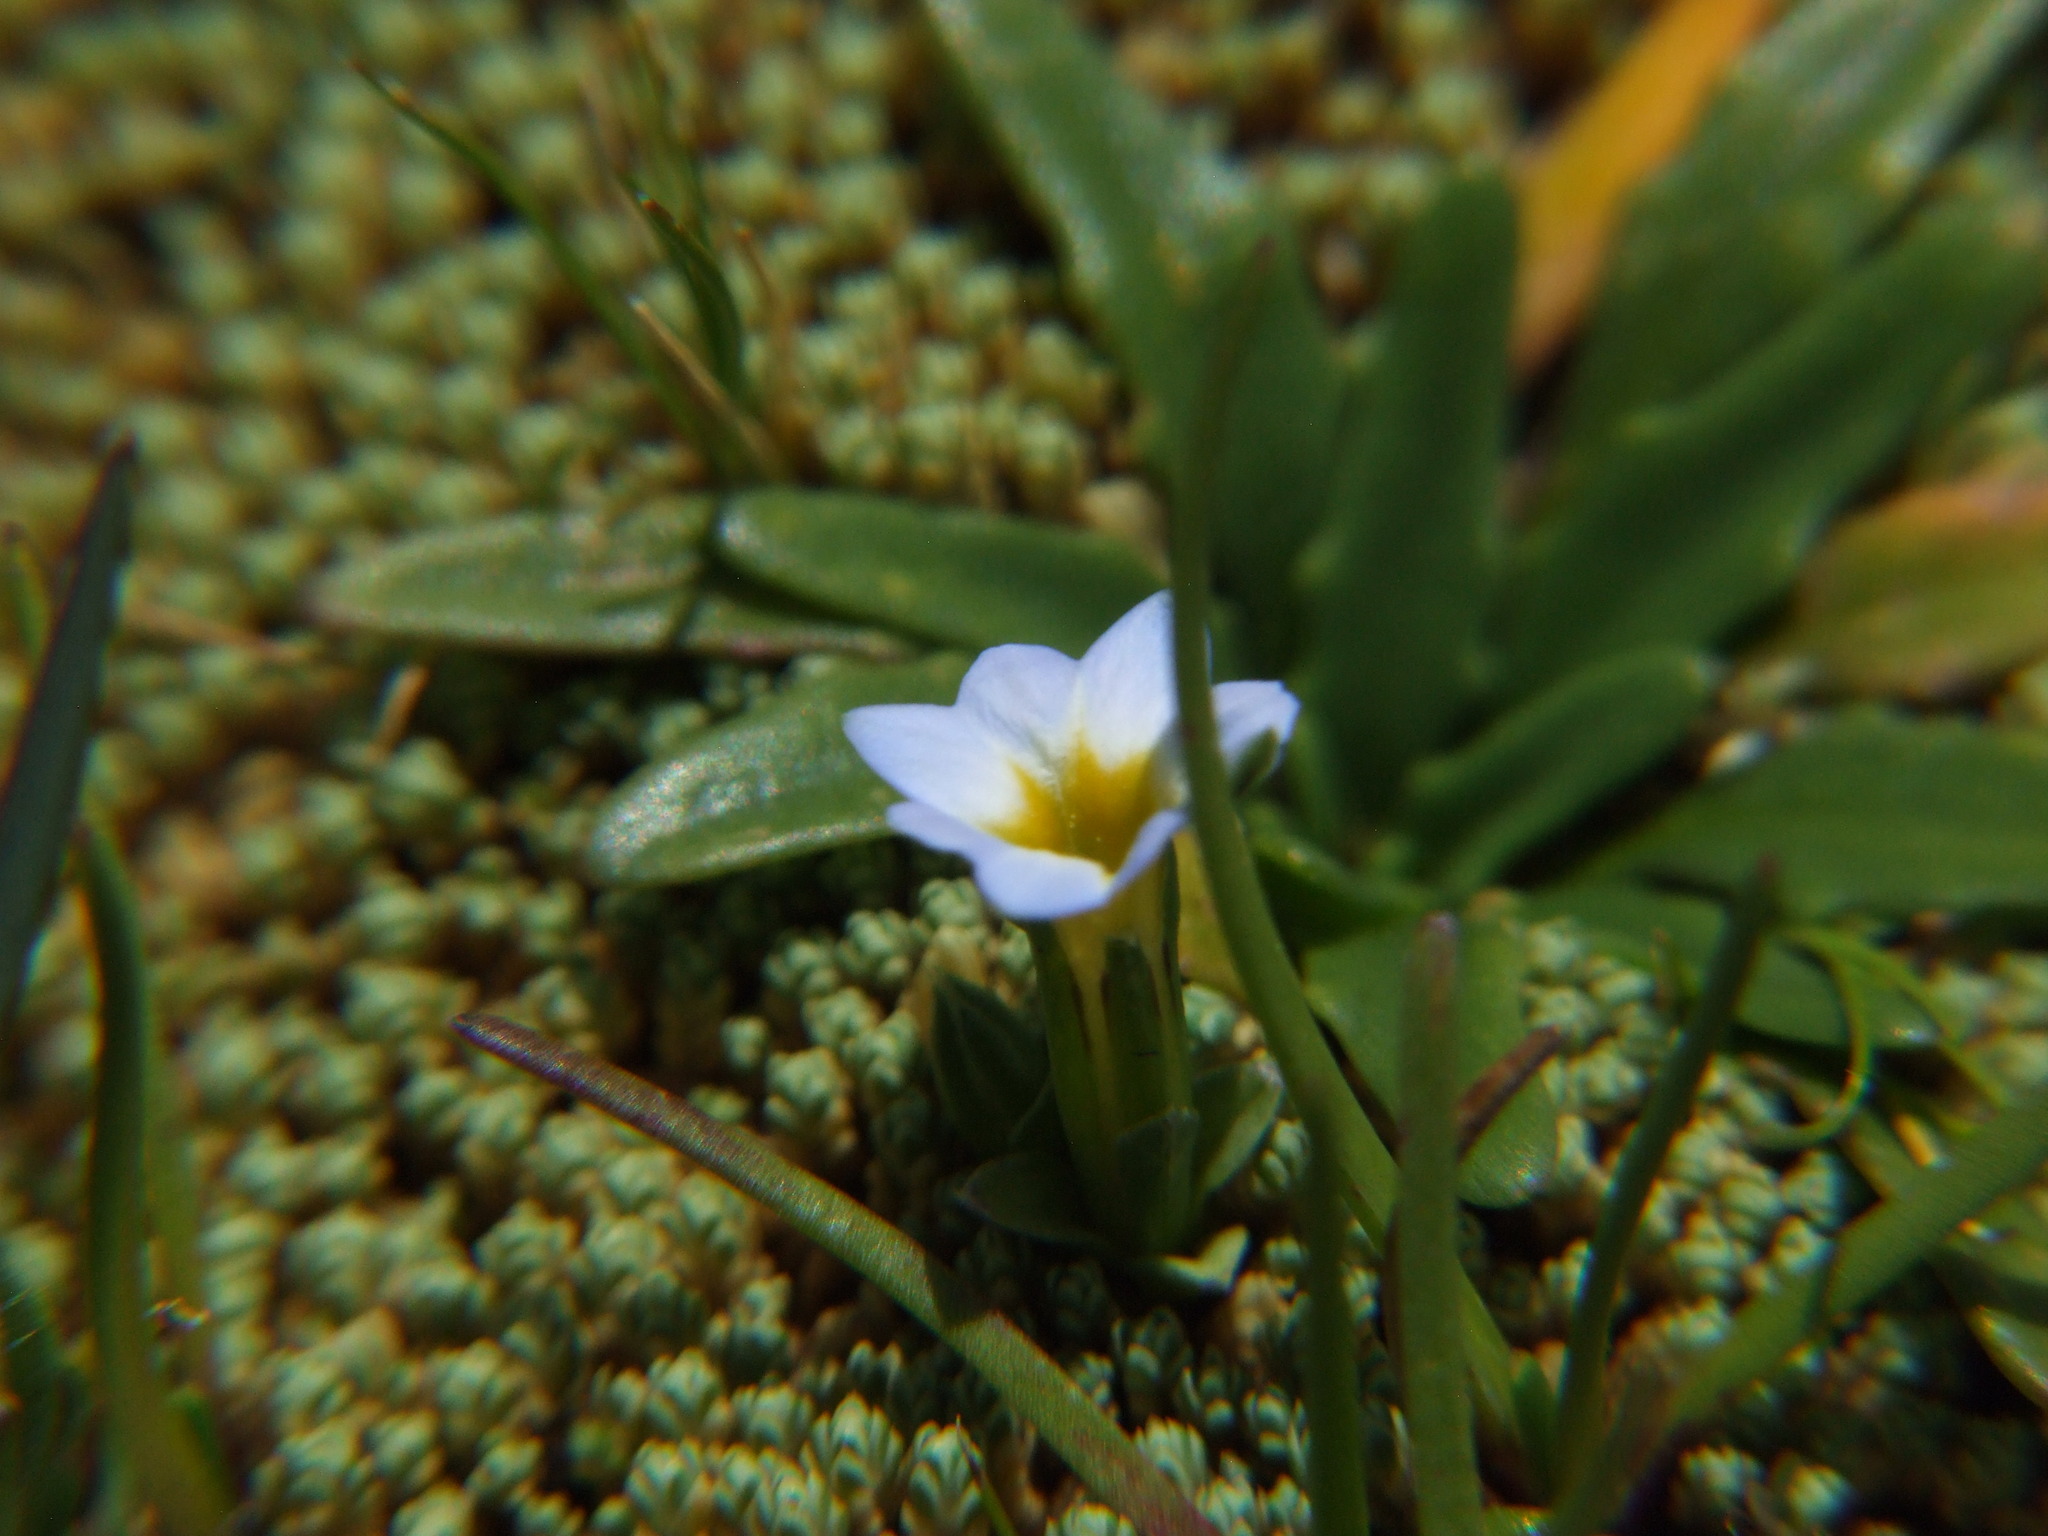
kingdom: Plantae
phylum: Tracheophyta
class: Magnoliopsida
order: Gentianales
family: Gentianaceae
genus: Gentiana
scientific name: Gentiana sedifolia
